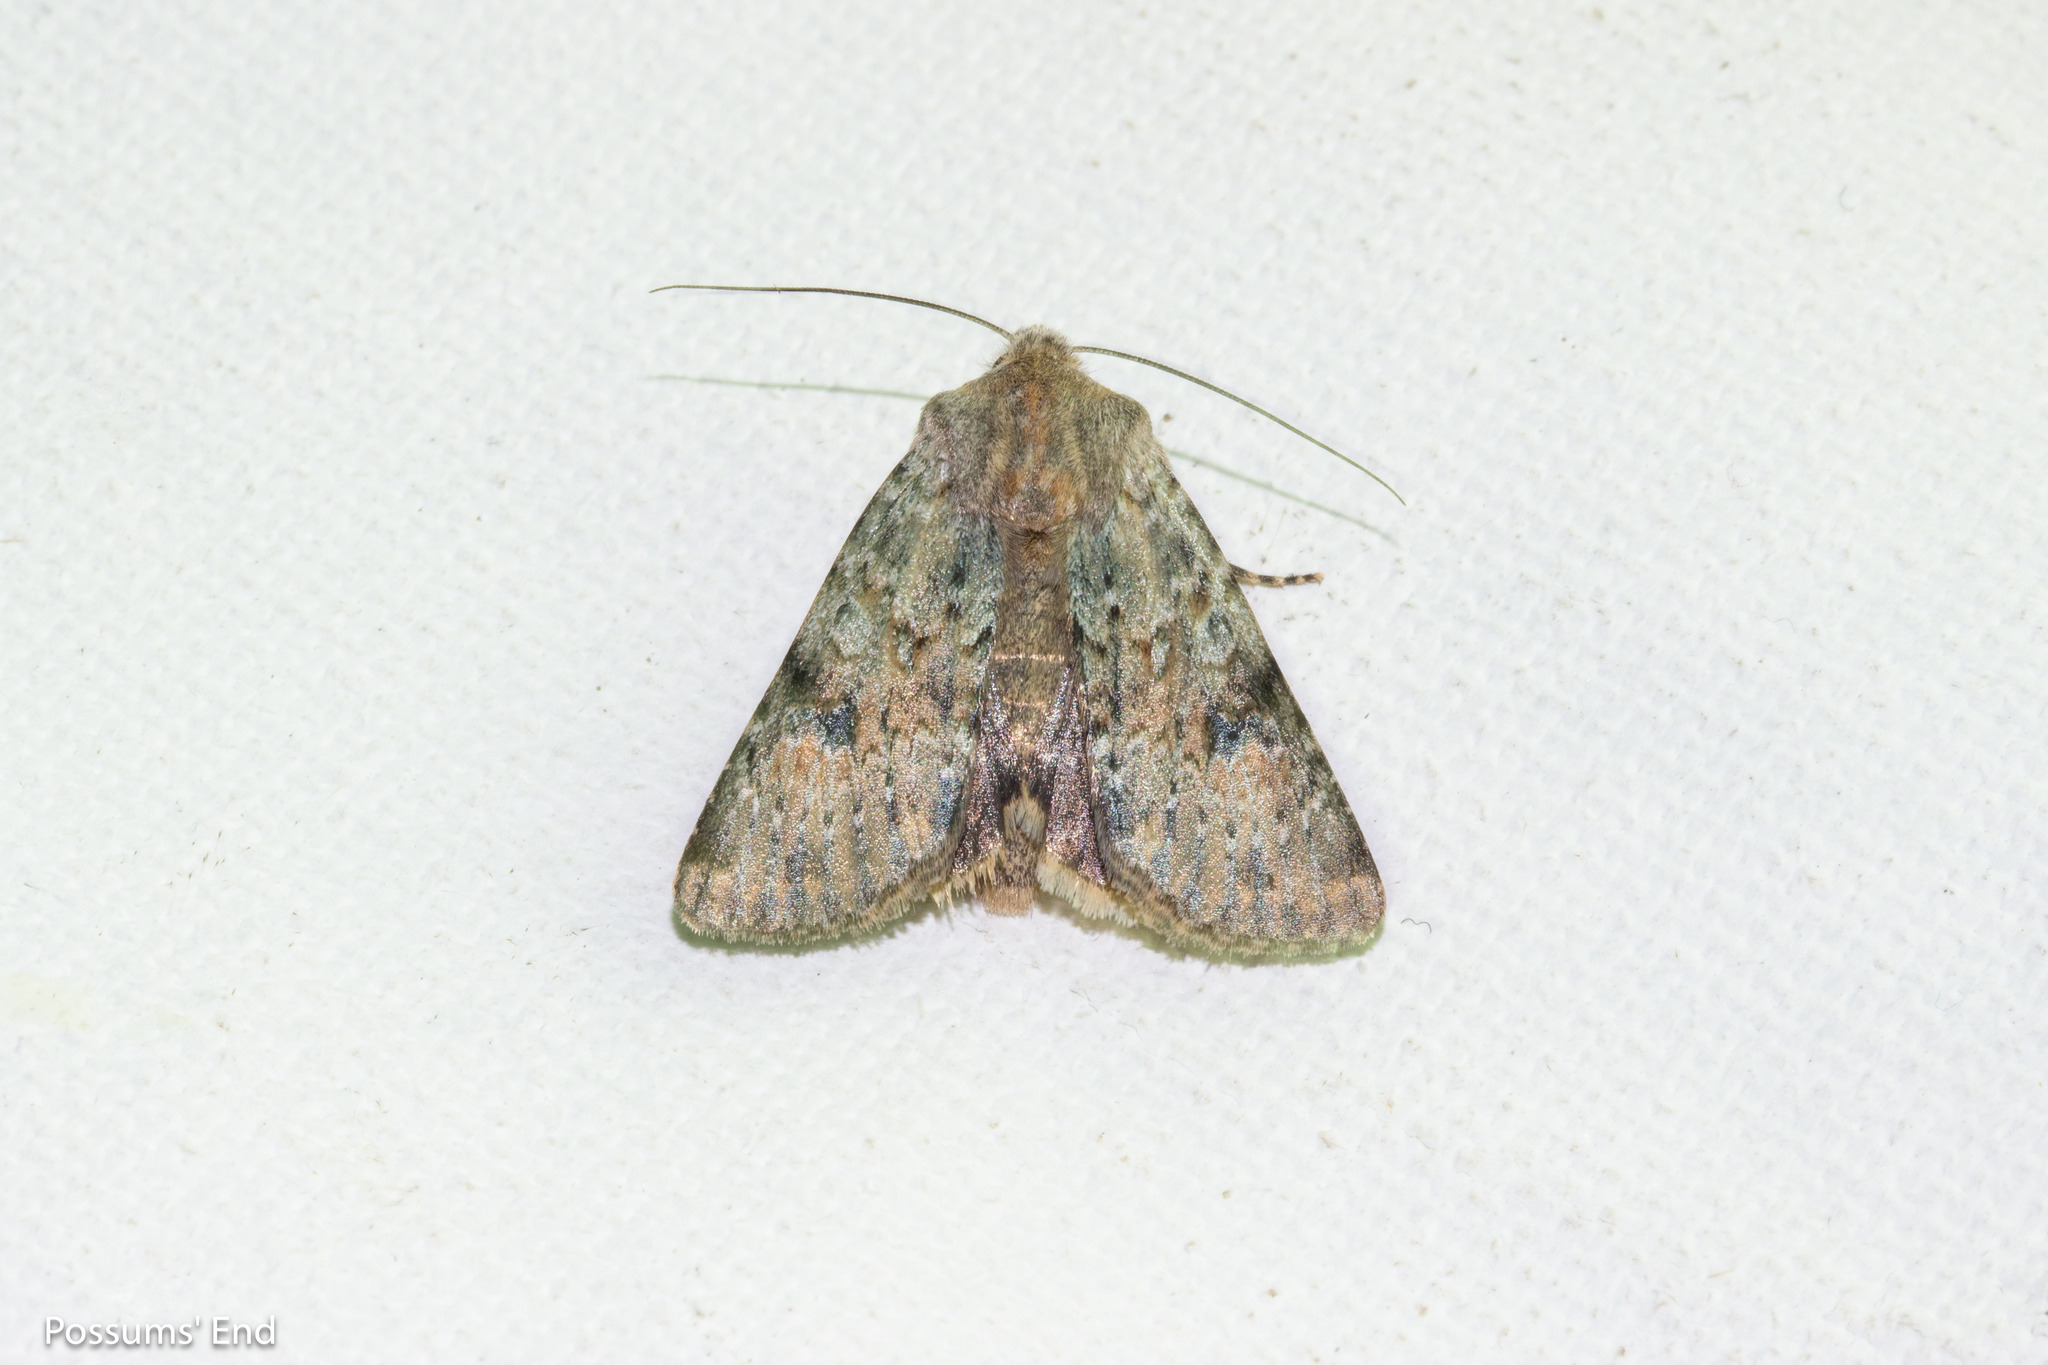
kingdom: Animalia
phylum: Arthropoda
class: Insecta
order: Lepidoptera
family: Noctuidae
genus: Ichneutica
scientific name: Ichneutica cuneata
